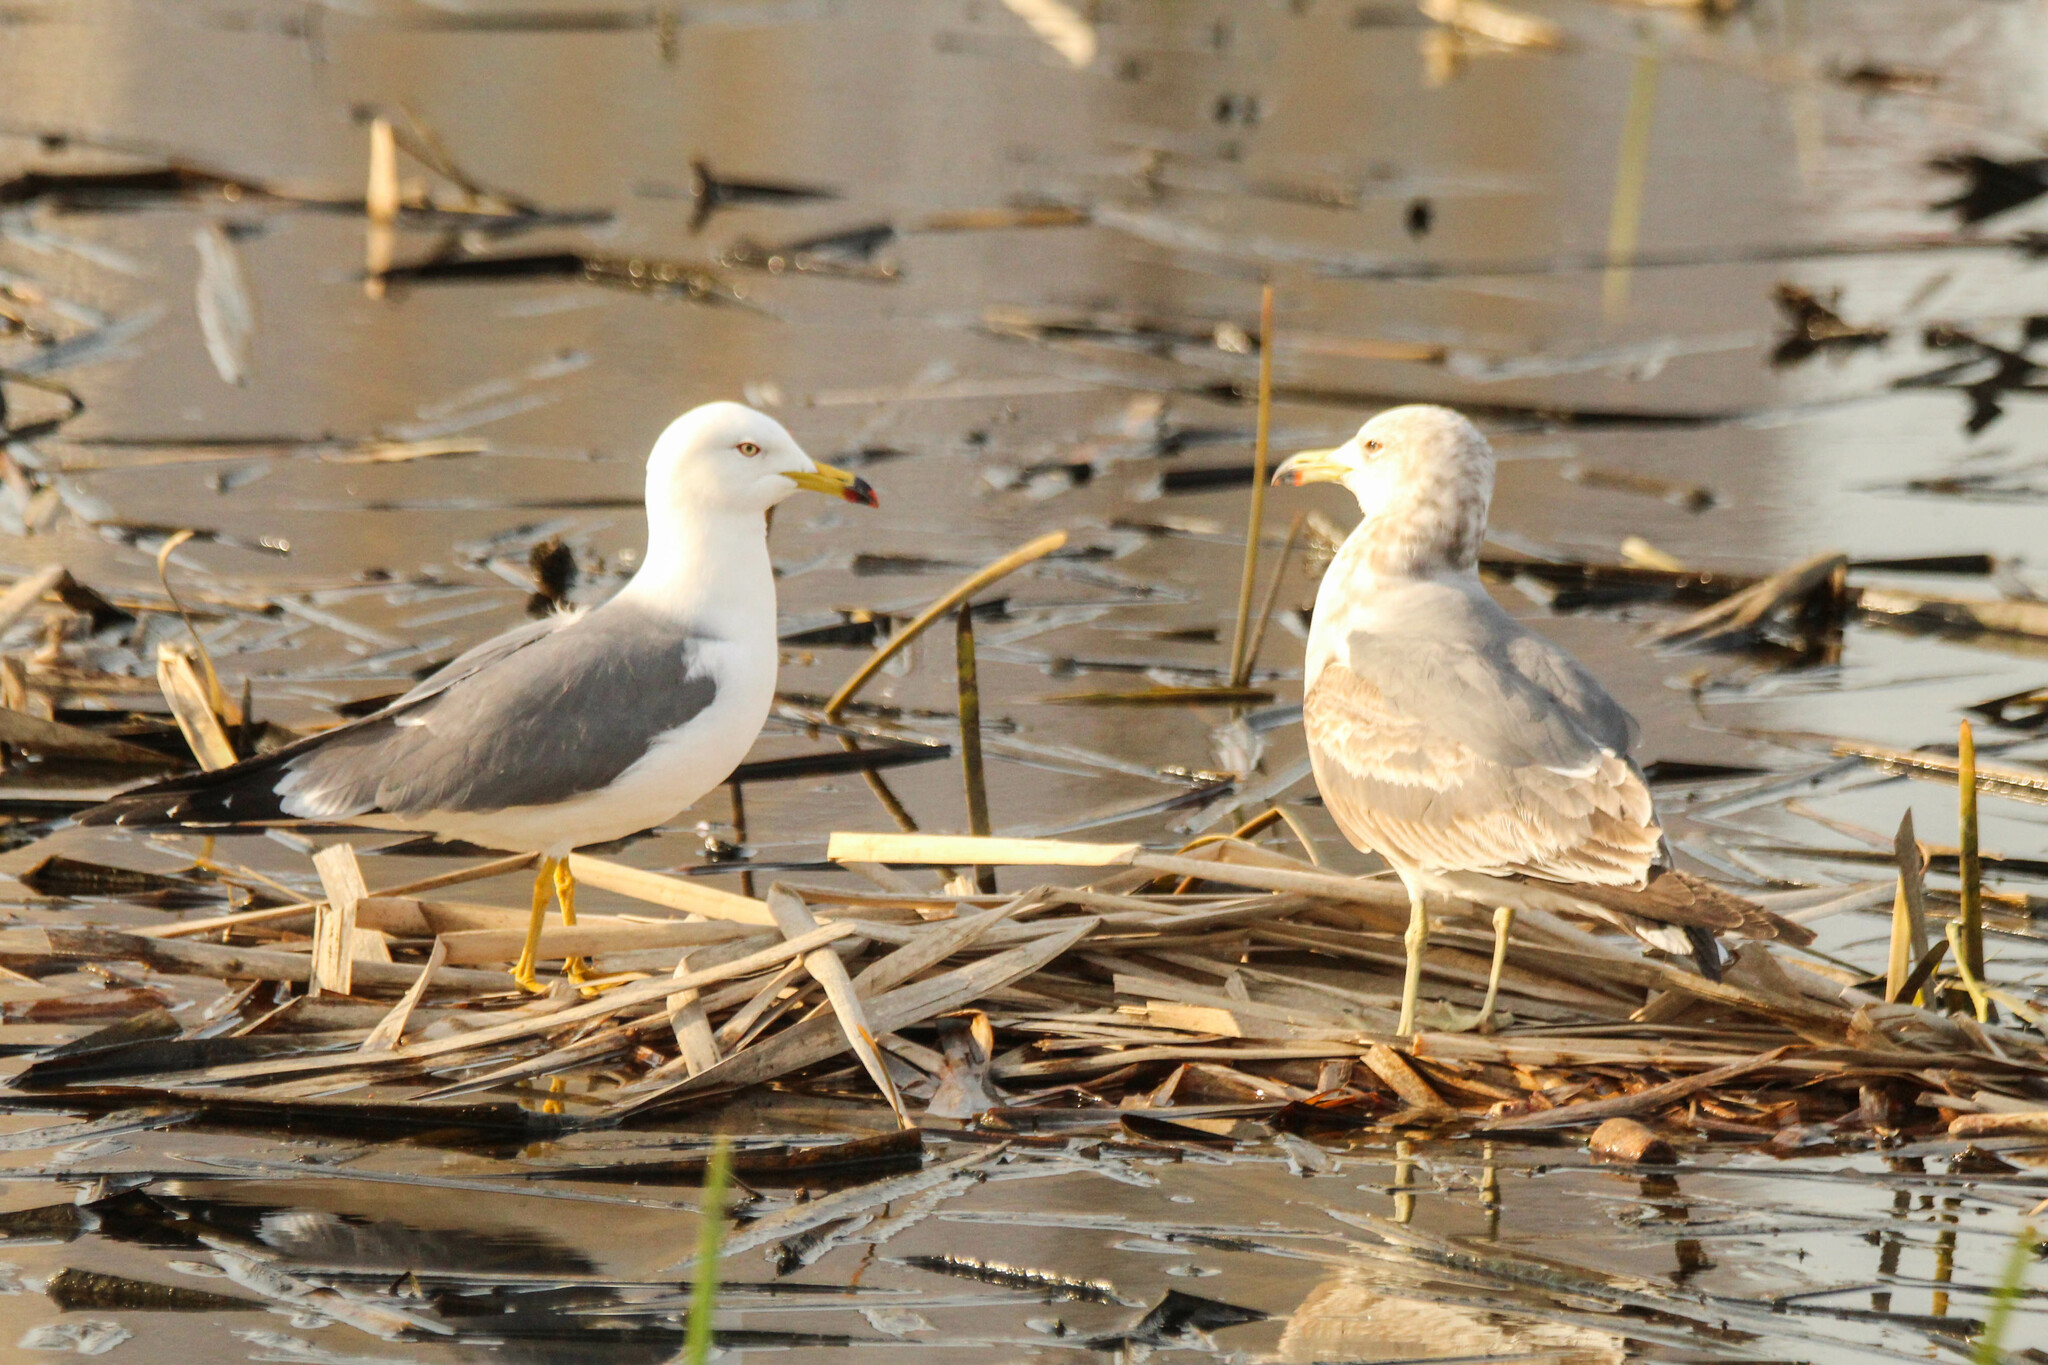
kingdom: Animalia
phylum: Chordata
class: Aves
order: Charadriiformes
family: Laridae
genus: Larus
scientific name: Larus crassirostris
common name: Black-tailed gull
